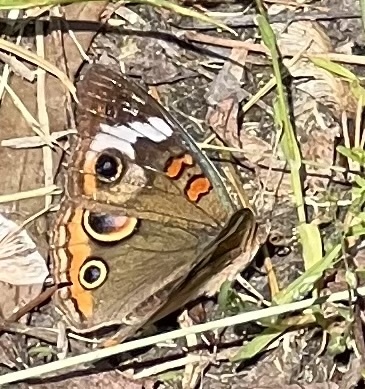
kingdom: Animalia
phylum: Arthropoda
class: Insecta
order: Lepidoptera
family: Nymphalidae
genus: Junonia
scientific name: Junonia coenia
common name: Common buckeye
